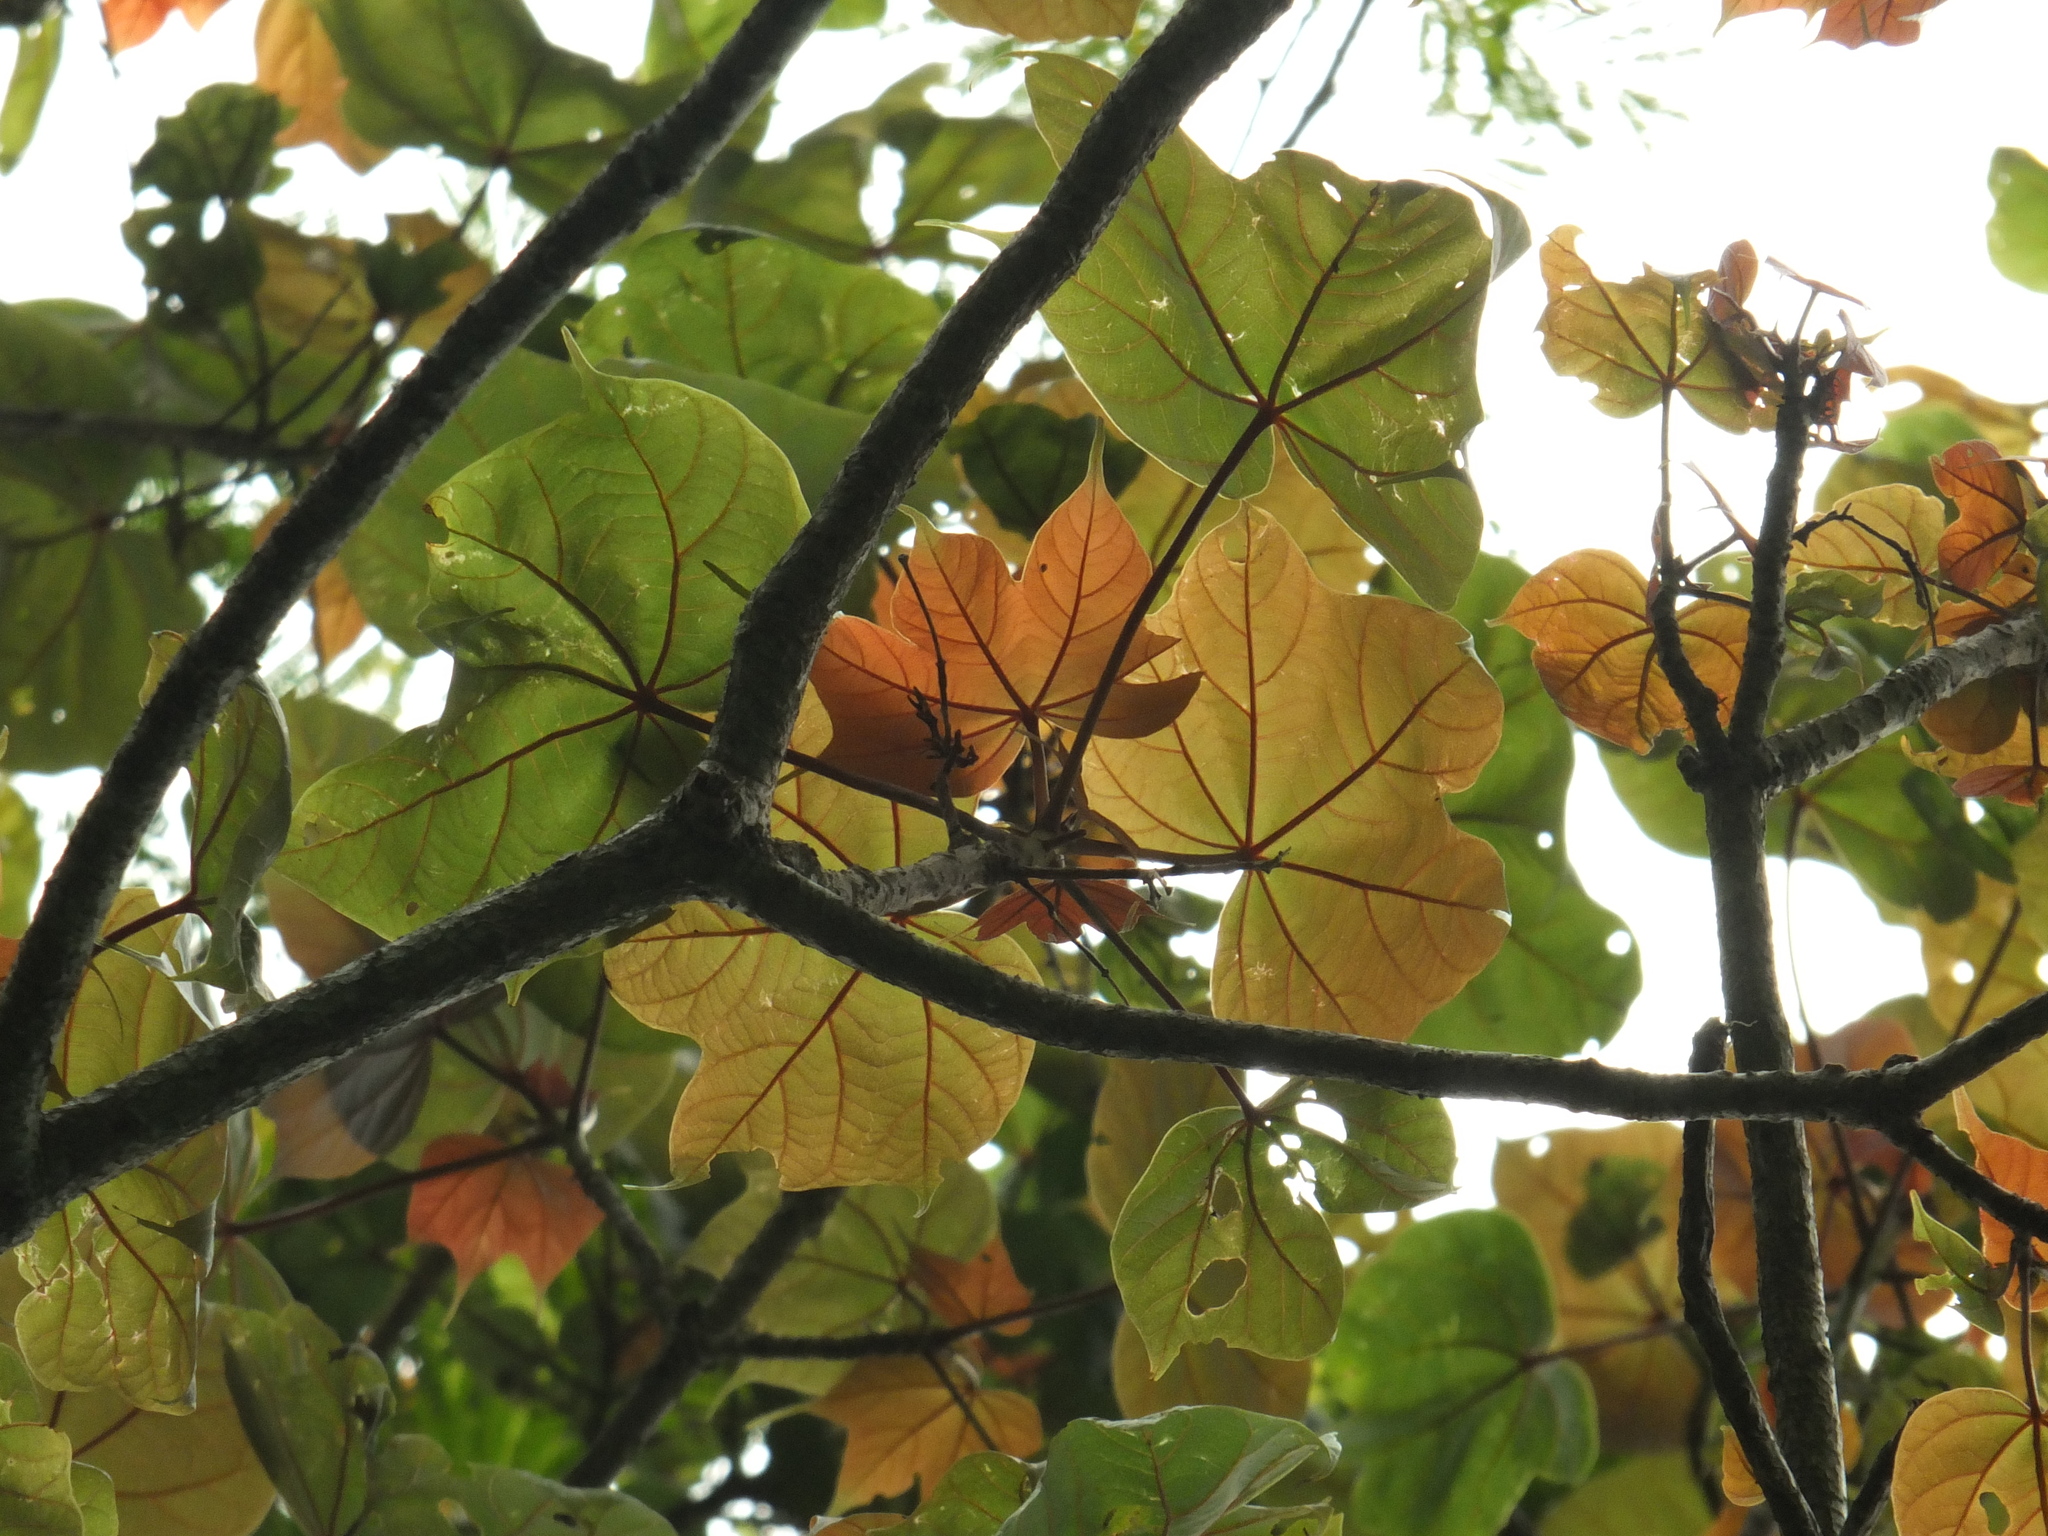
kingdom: Plantae
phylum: Tracheophyta
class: Magnoliopsida
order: Malvales
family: Malvaceae
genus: Firmiana
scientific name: Firmiana colorata
